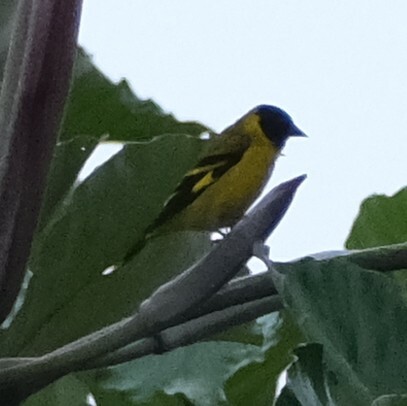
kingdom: Animalia
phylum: Chordata
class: Aves
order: Passeriformes
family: Fringillidae
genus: Spinus
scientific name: Spinus magellanicus
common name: Hooded siskin
